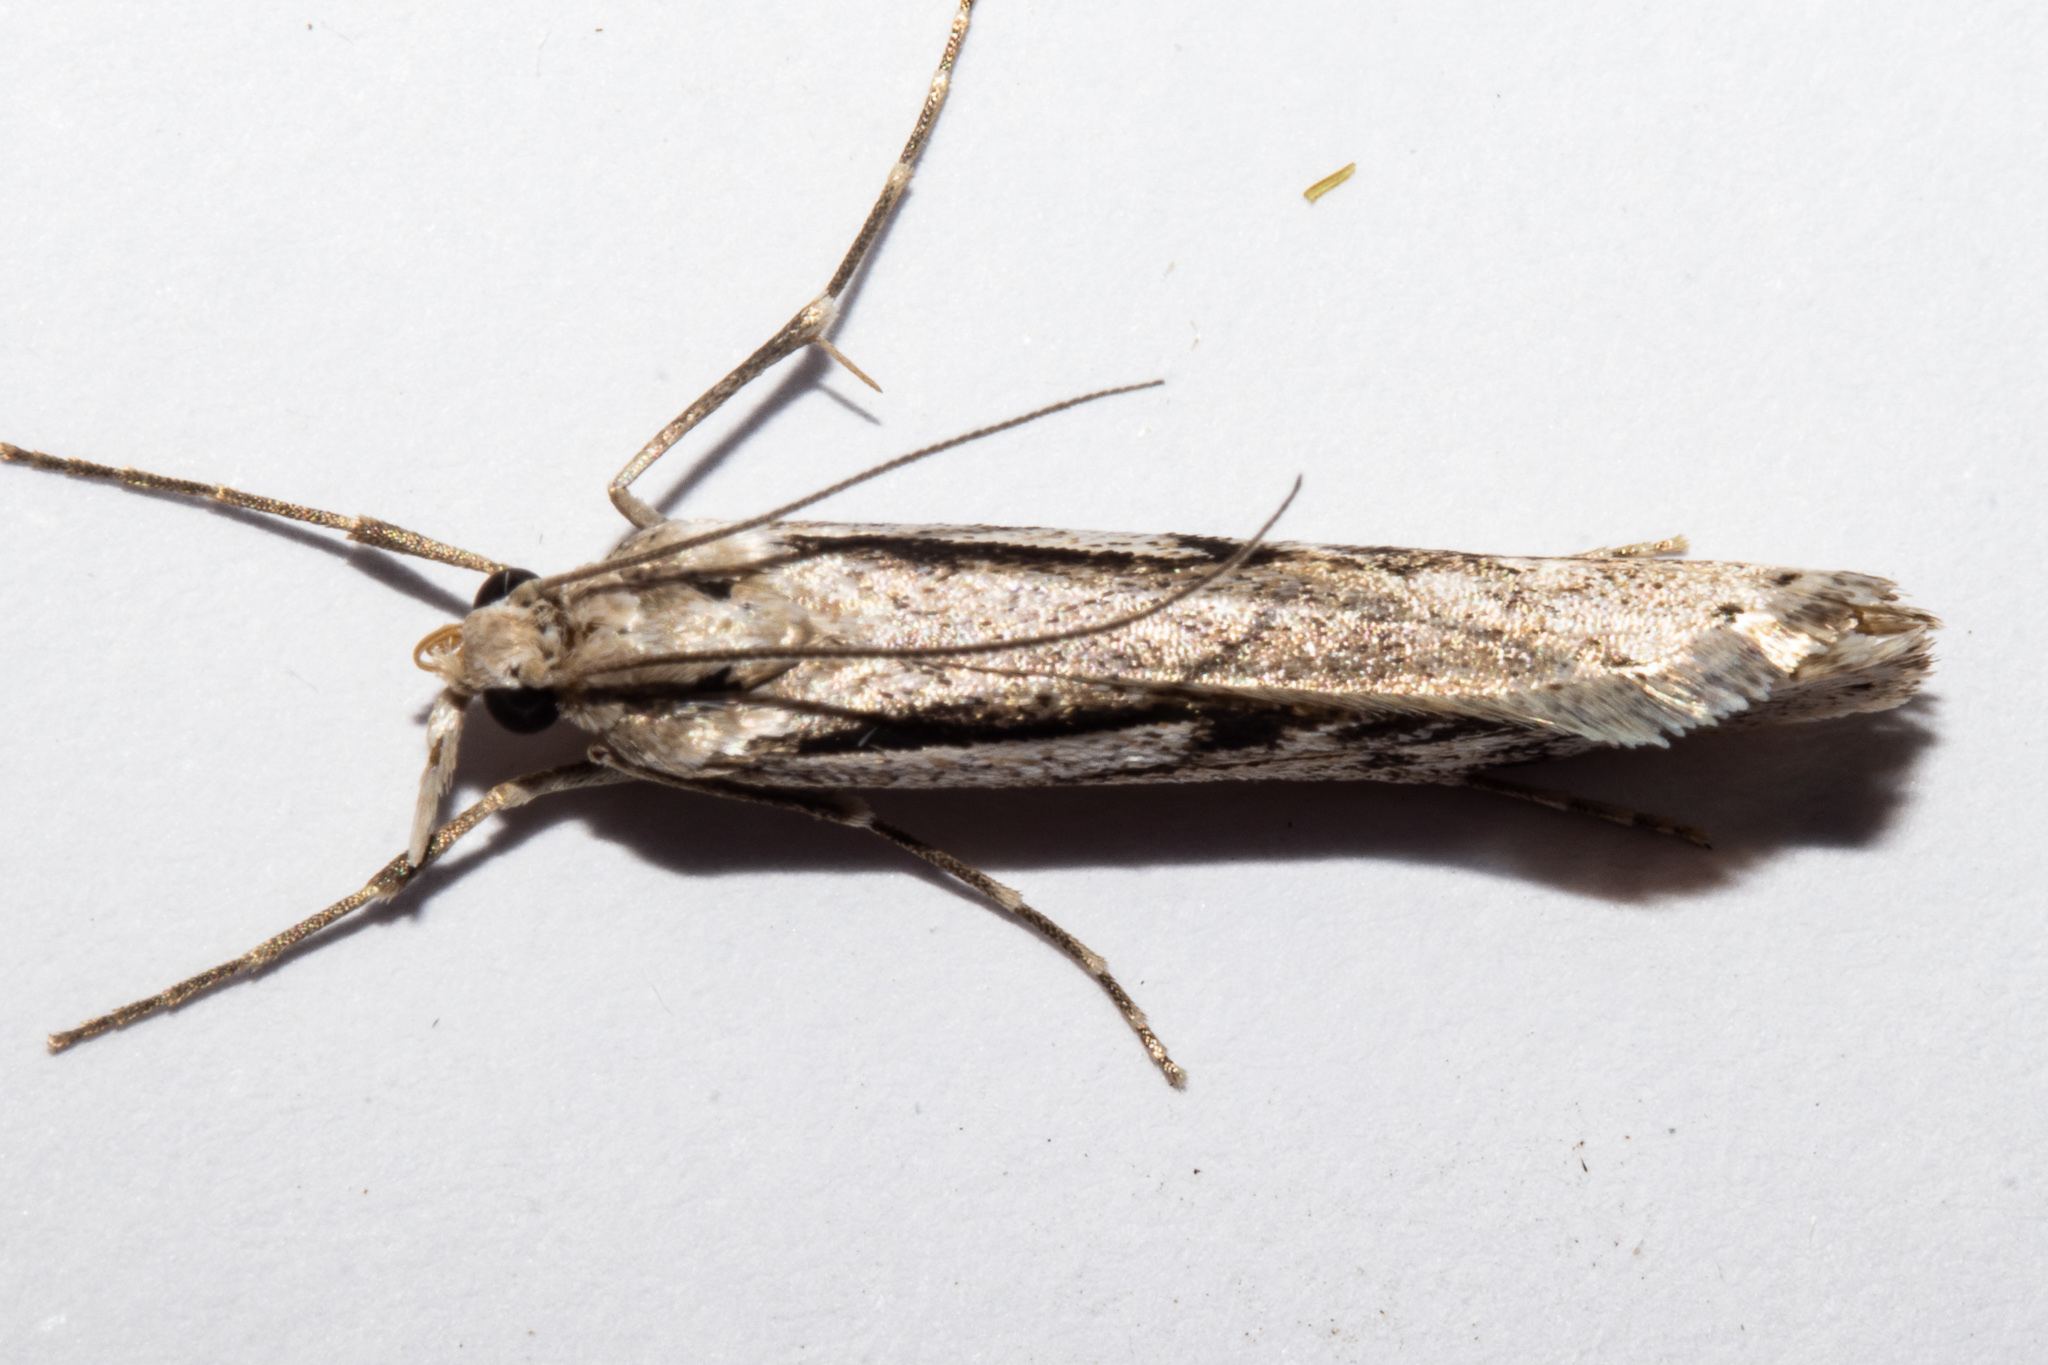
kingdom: Animalia
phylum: Arthropoda
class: Insecta
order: Lepidoptera
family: Crambidae
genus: Tawhitia
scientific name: Tawhitia pentadactylus
